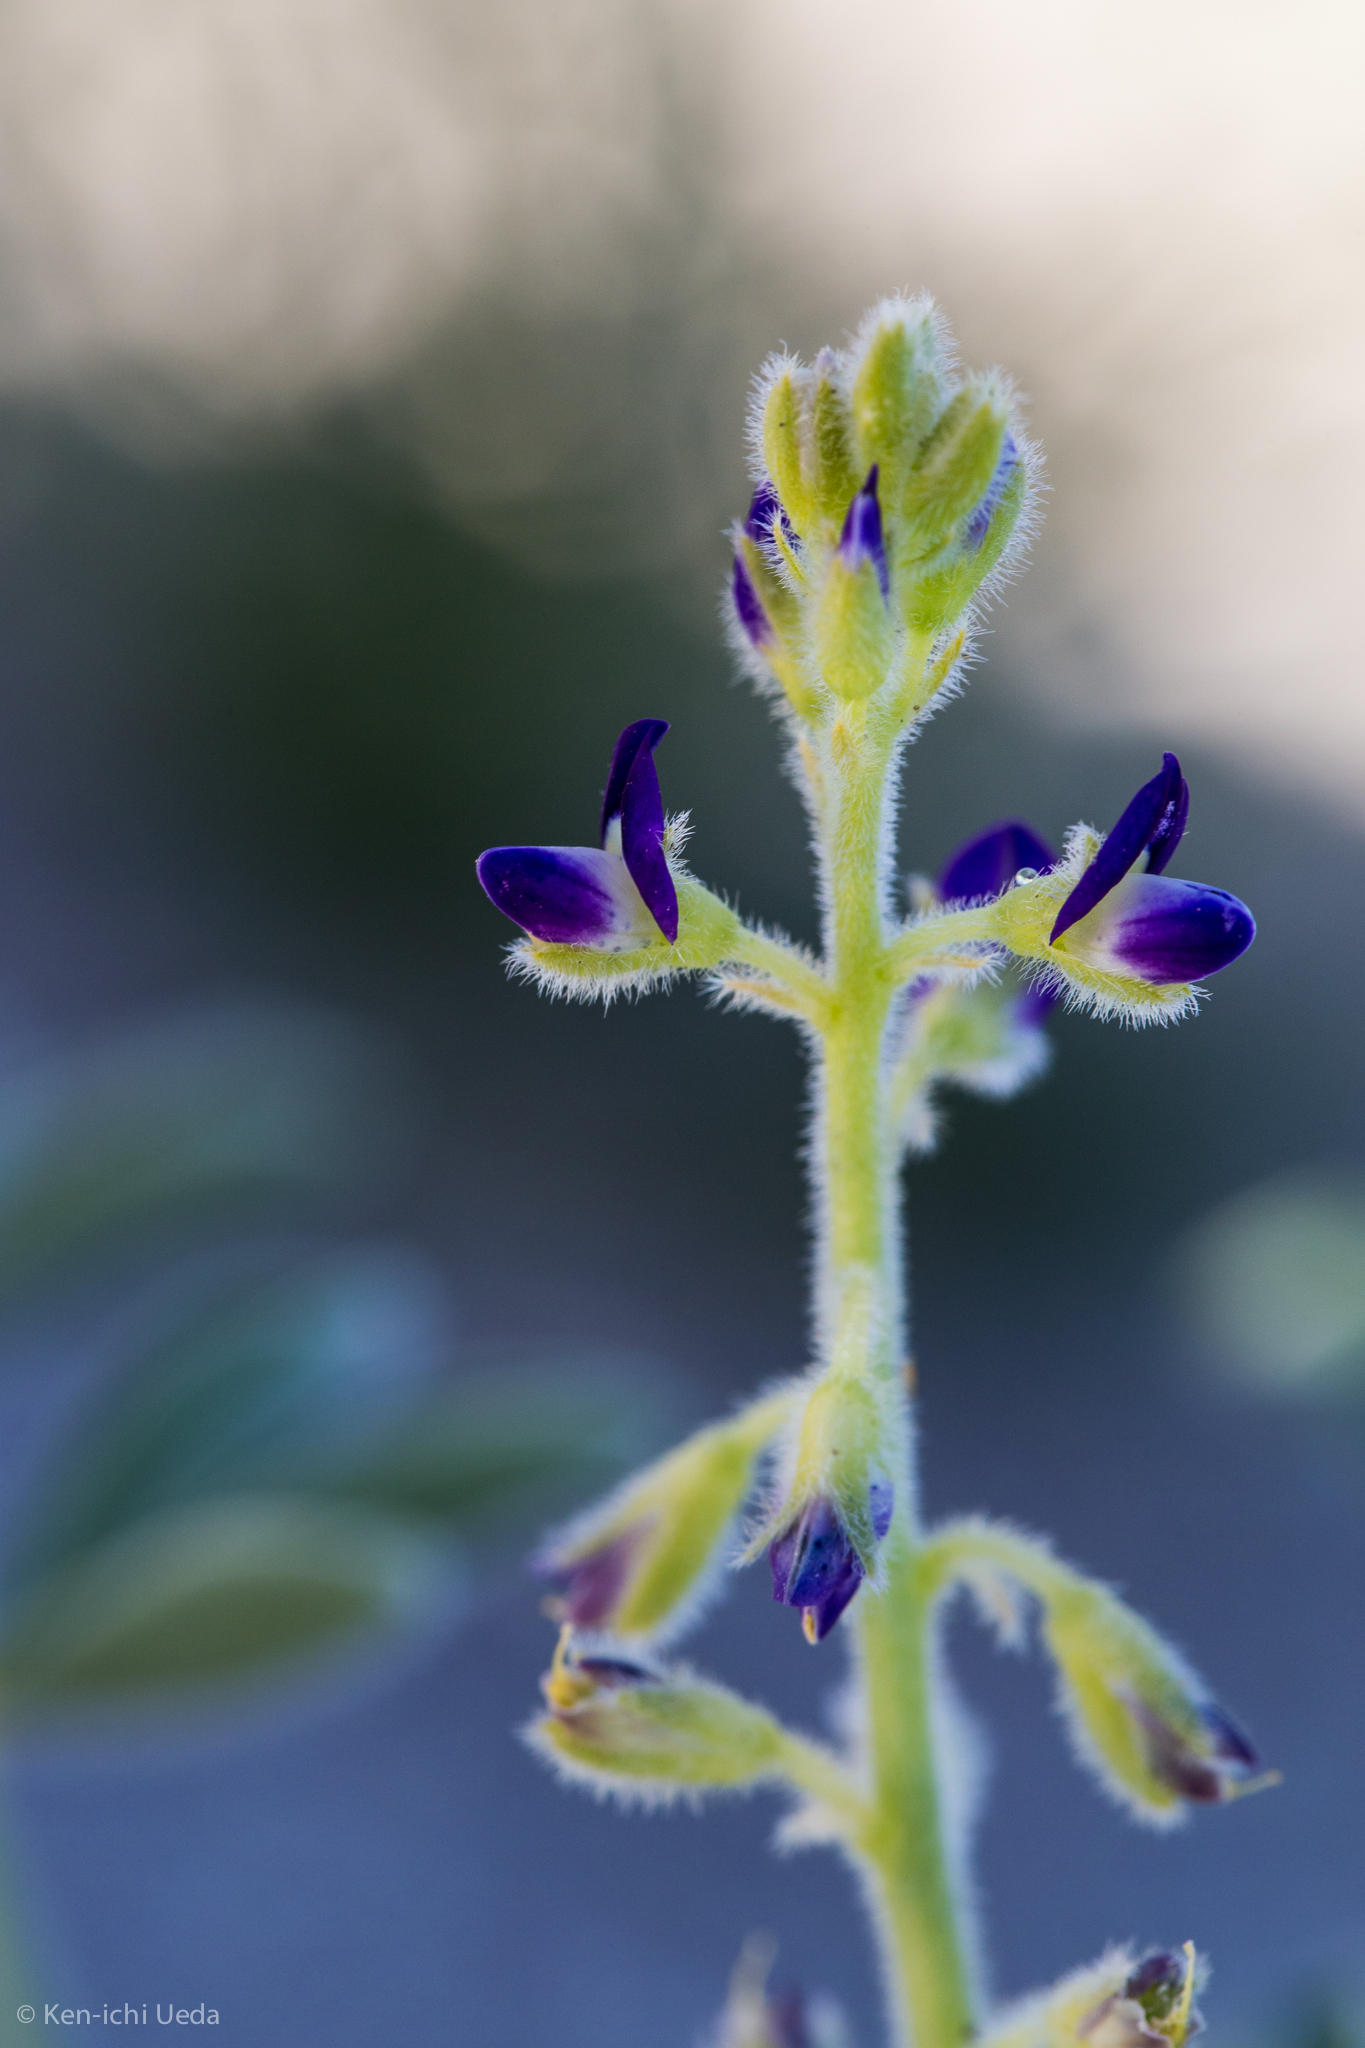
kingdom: Plantae
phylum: Tracheophyta
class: Magnoliopsida
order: Fabales
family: Fabaceae
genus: Lupinus
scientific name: Lupinus shockleyi
